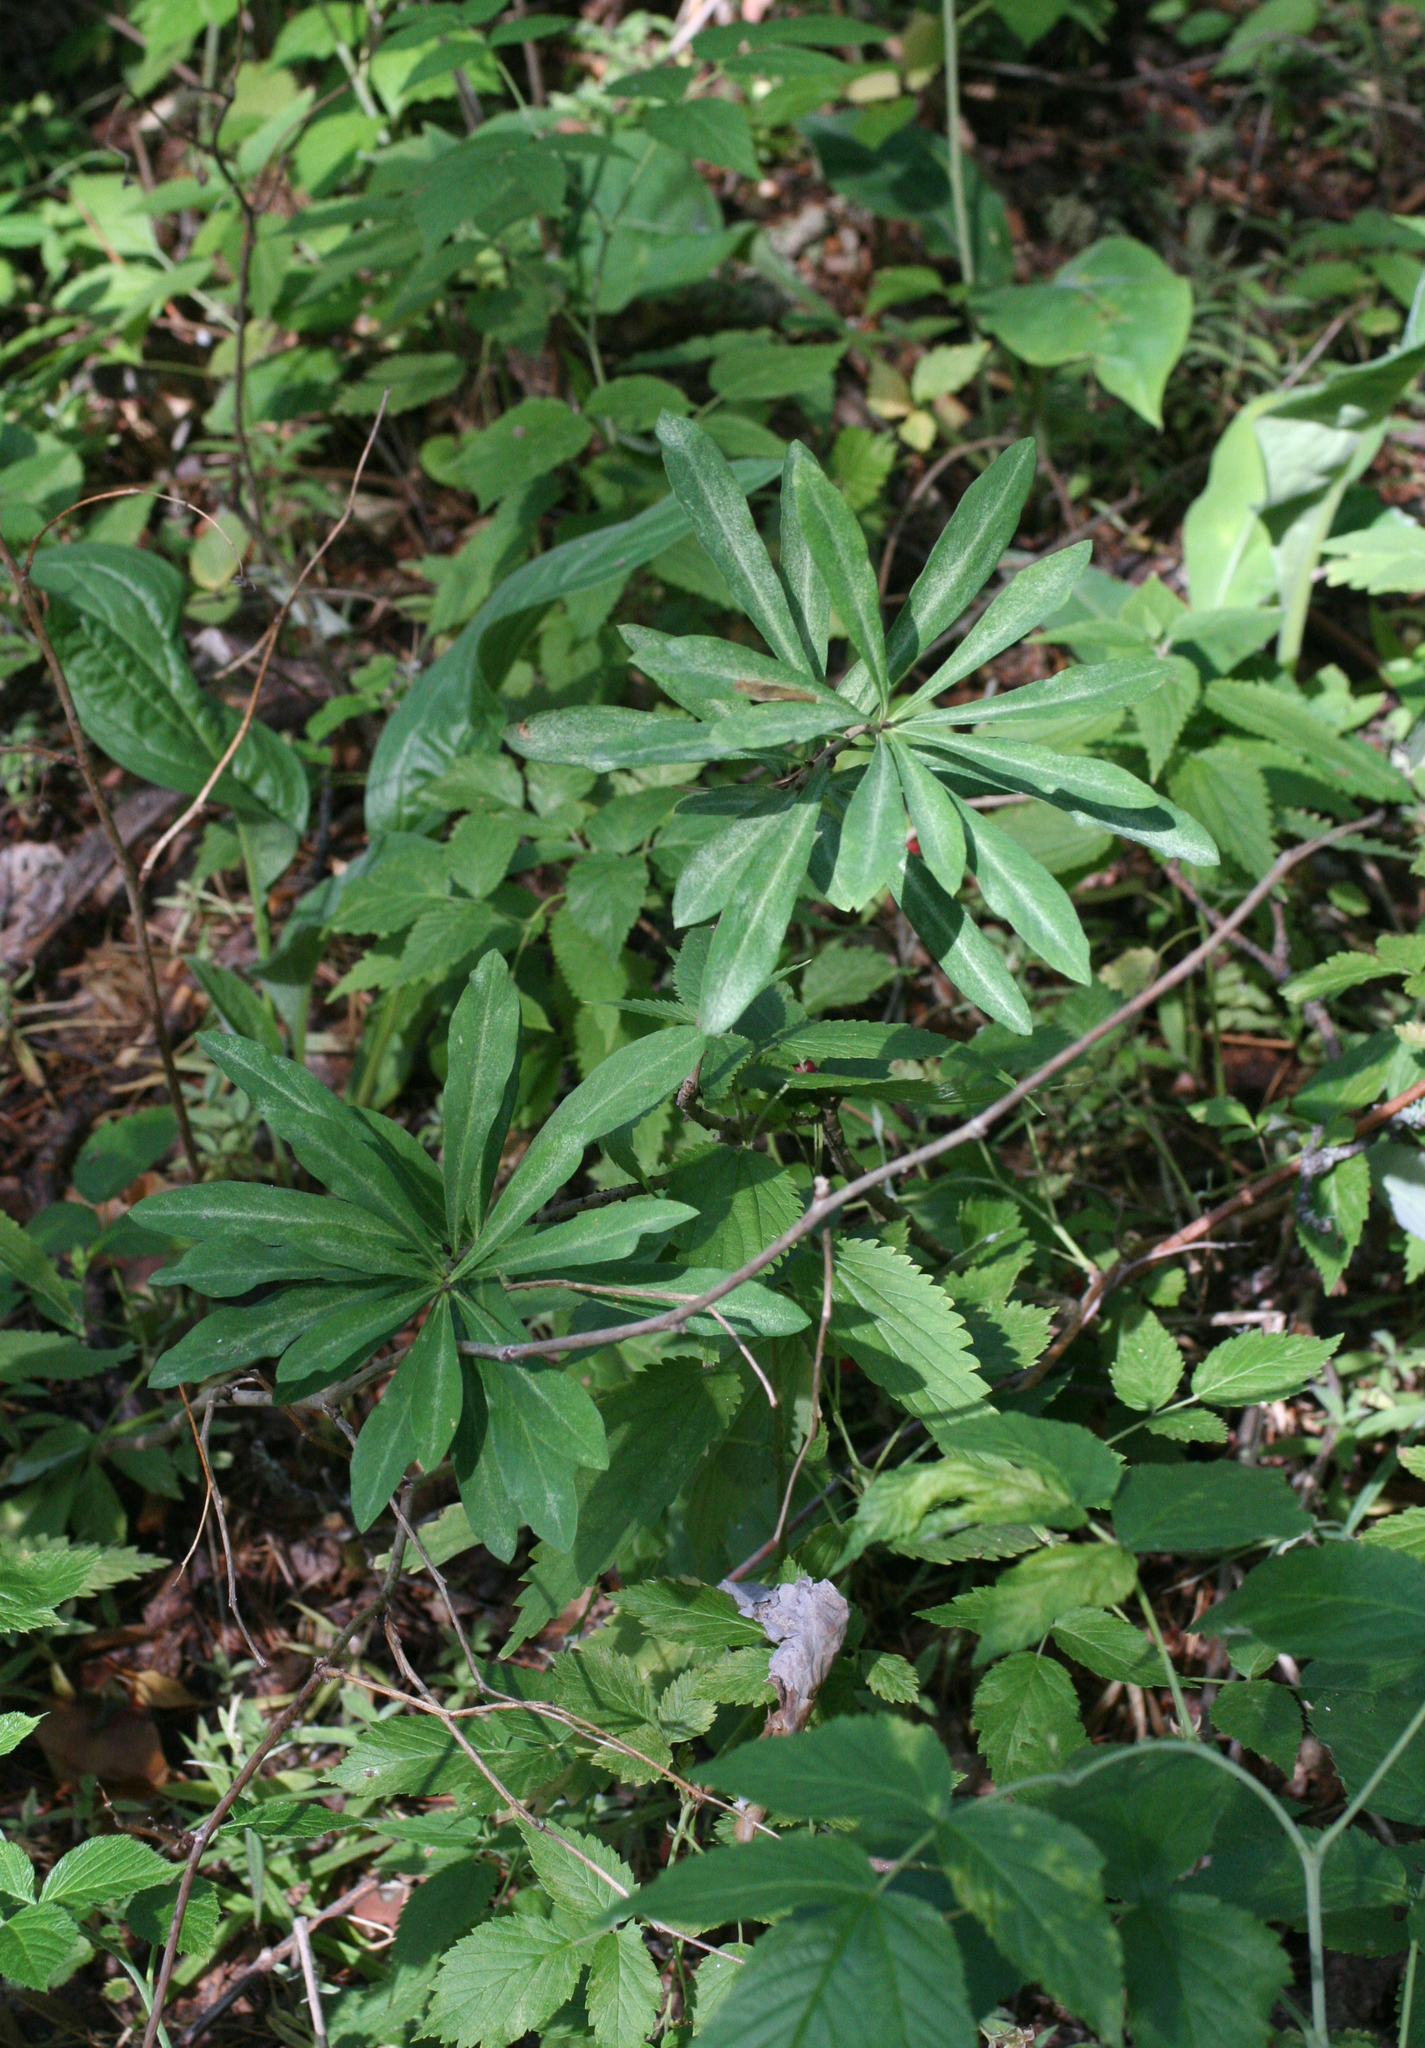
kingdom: Plantae
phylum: Tracheophyta
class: Magnoliopsida
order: Malvales
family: Thymelaeaceae
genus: Daphne
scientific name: Daphne mezereum
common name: Mezereon
